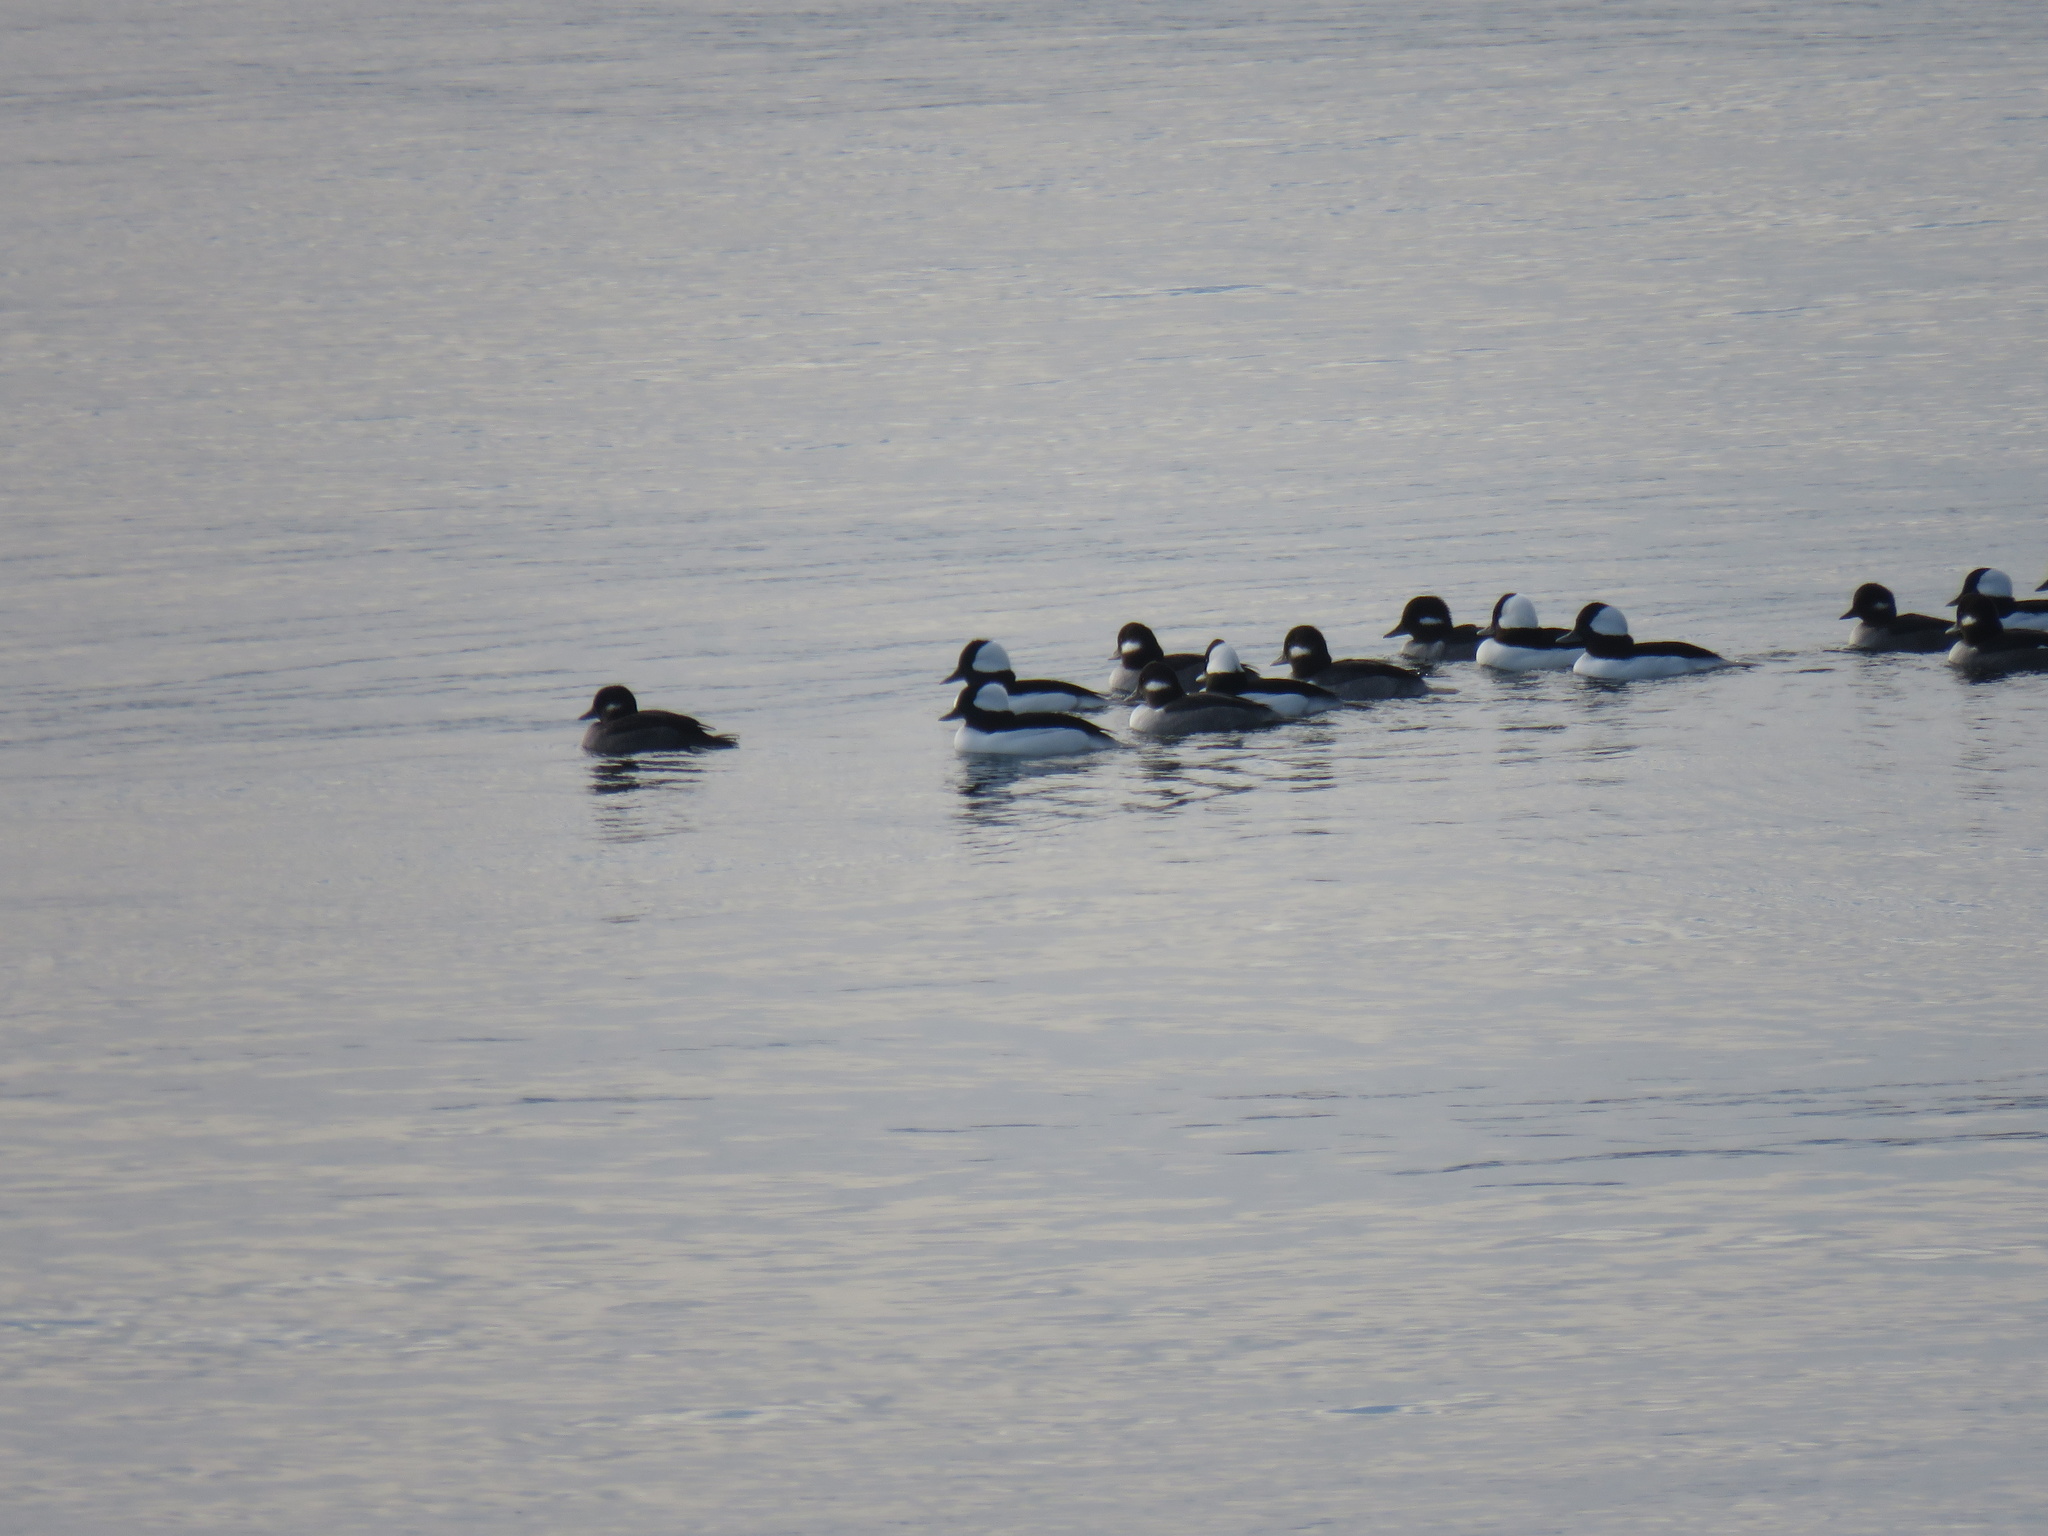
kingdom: Animalia
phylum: Chordata
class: Aves
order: Anseriformes
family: Anatidae
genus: Bucephala
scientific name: Bucephala albeola
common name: Bufflehead
